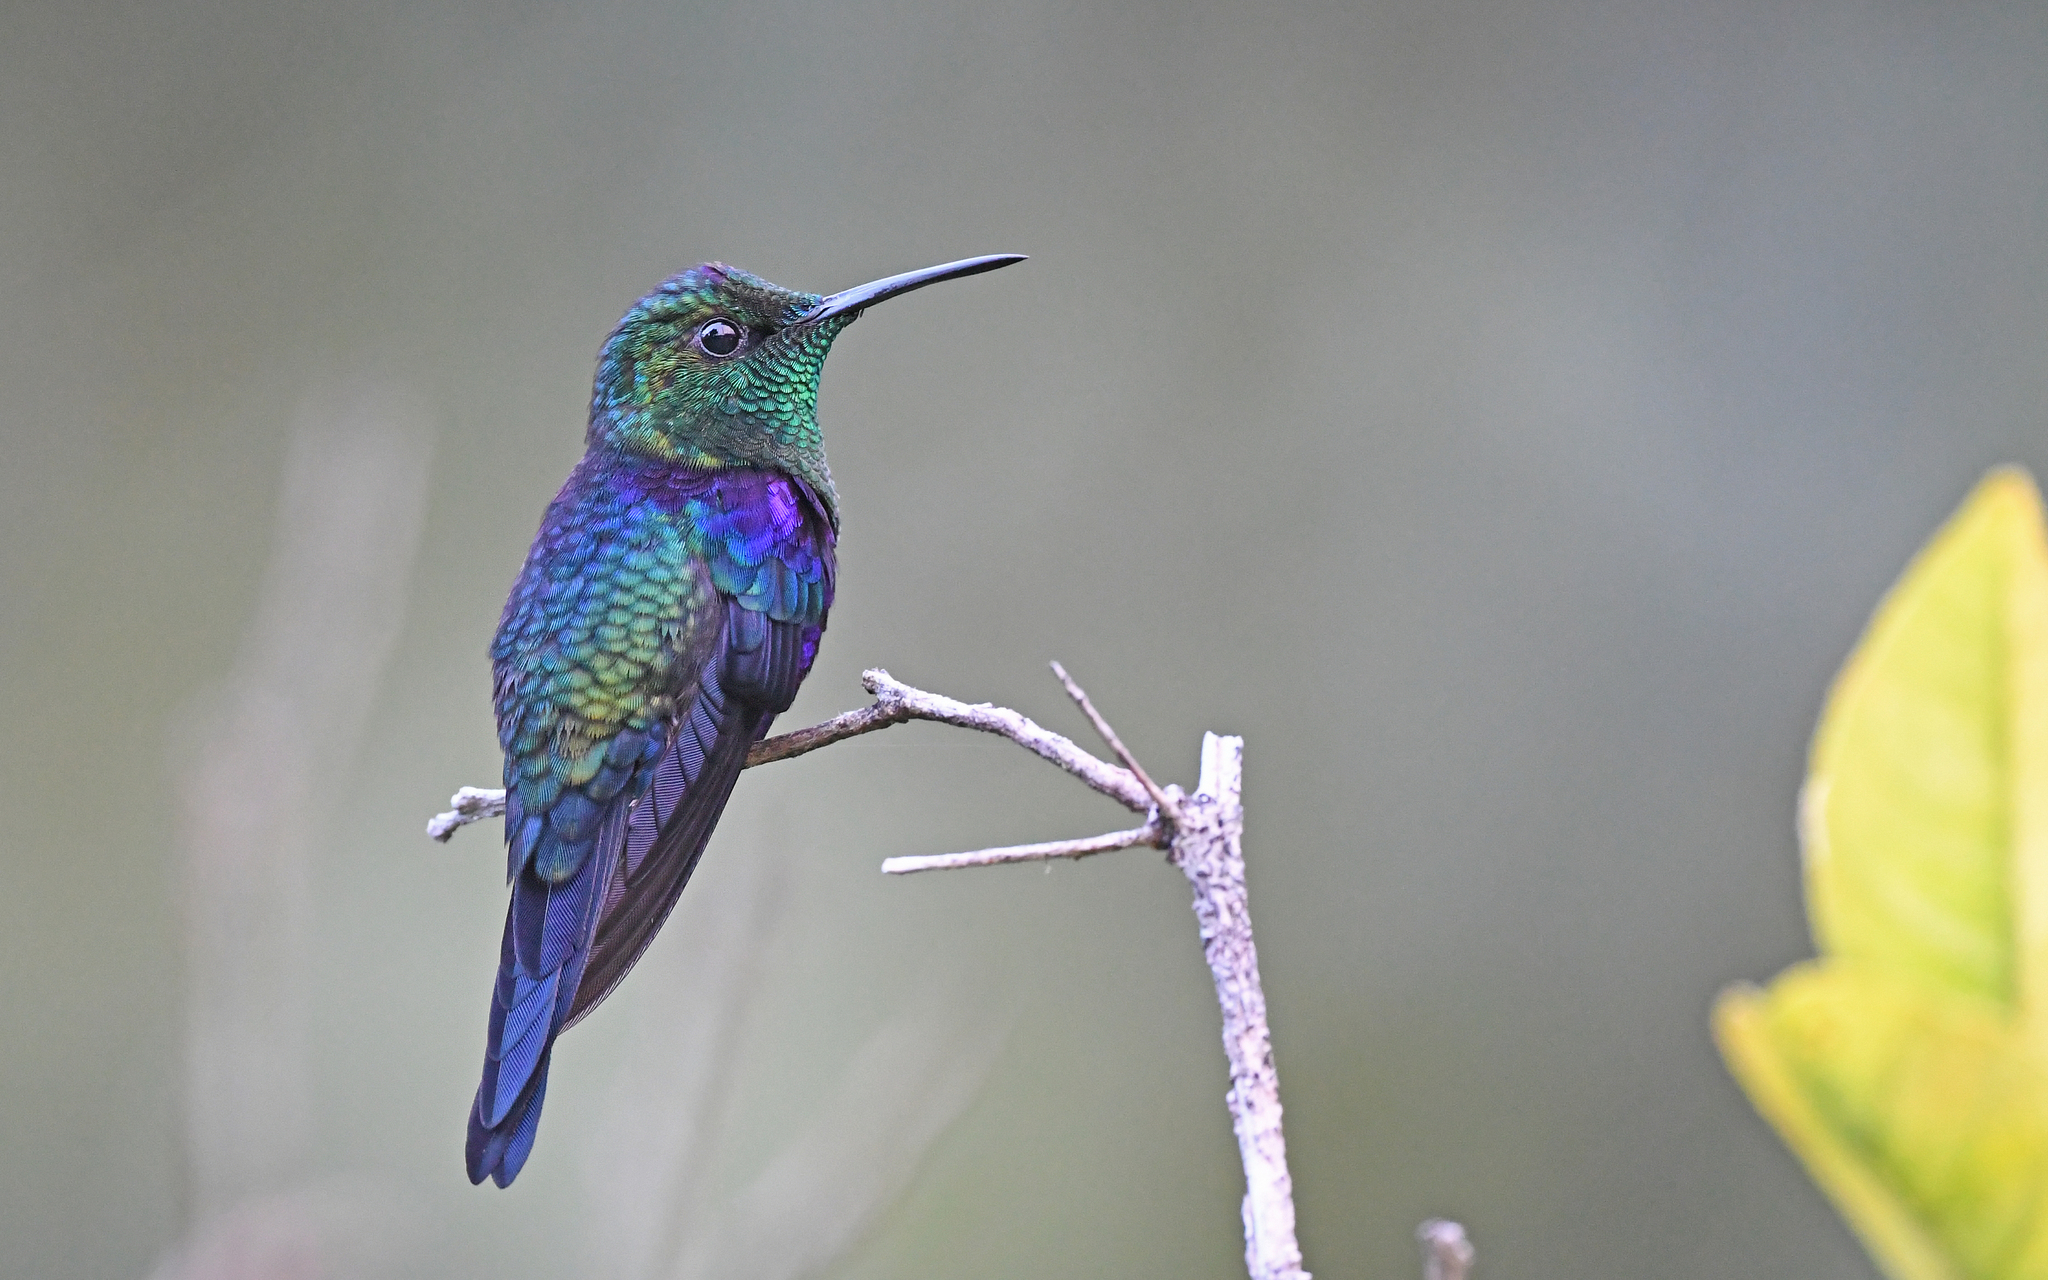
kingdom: Animalia
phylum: Chordata
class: Aves
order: Apodiformes
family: Trochilidae
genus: Thalurania
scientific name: Thalurania colombica
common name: Crowned woodnymph
